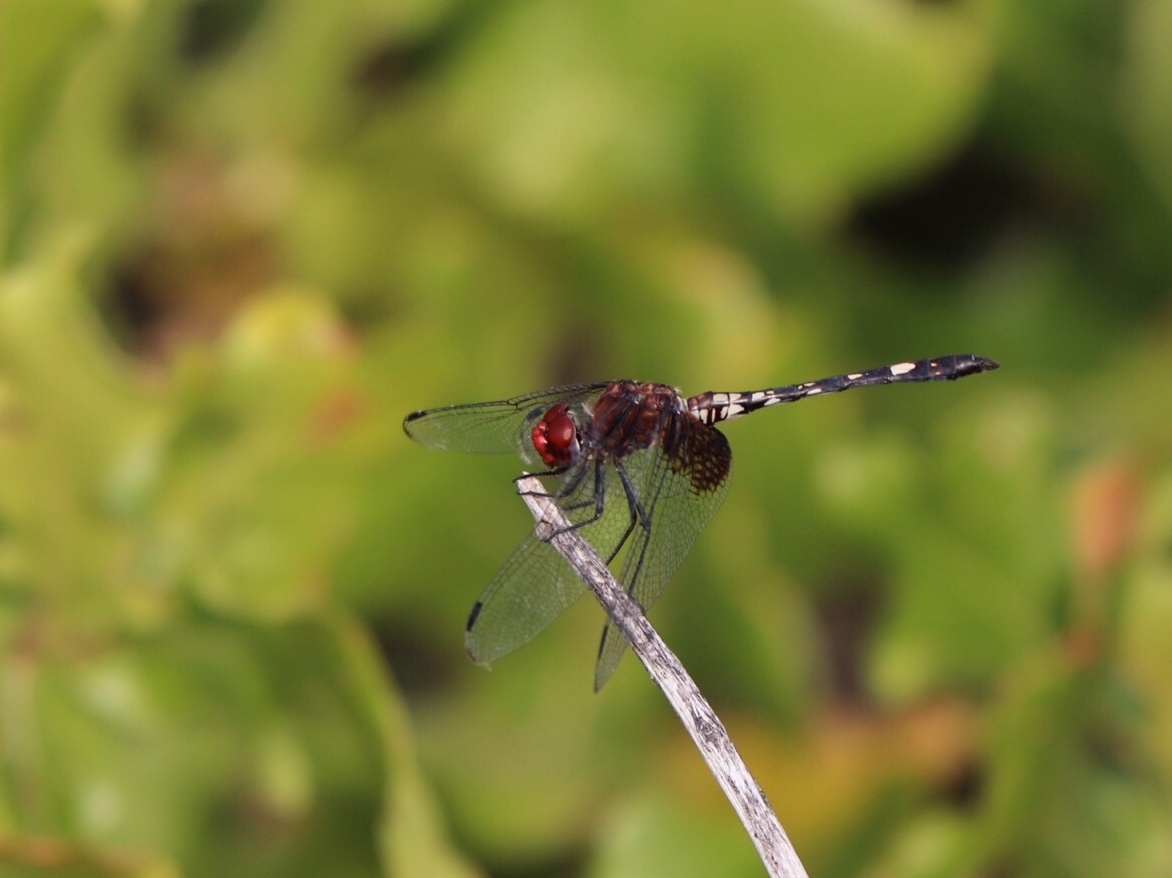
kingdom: Animalia
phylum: Arthropoda
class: Insecta
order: Odonata
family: Libellulidae
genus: Dythemis
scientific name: Dythemis fugax
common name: Checkered setwing
